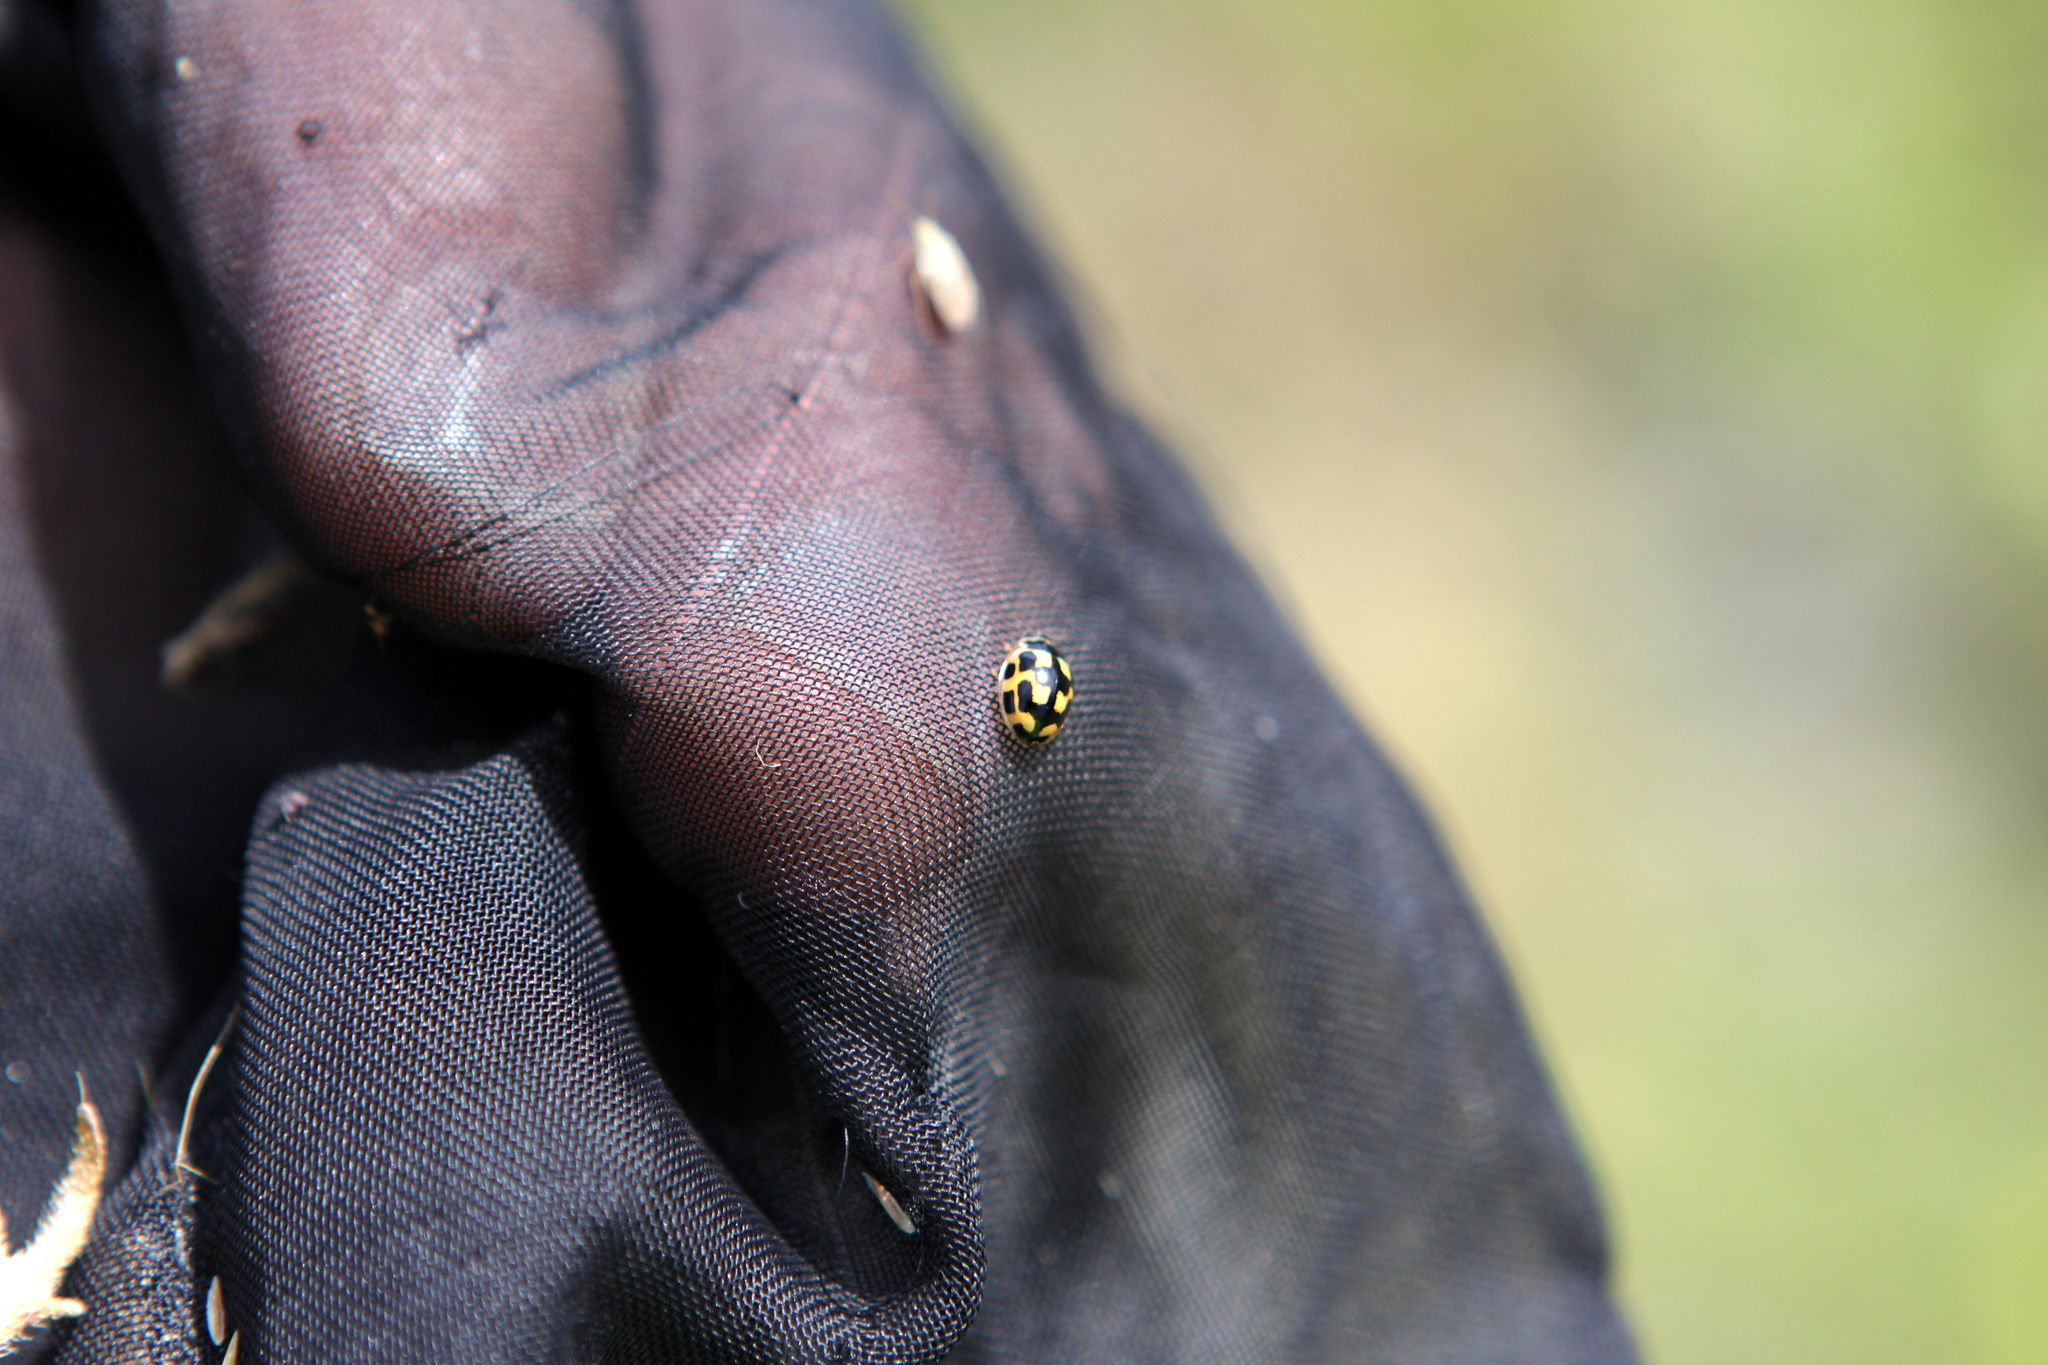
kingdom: Animalia
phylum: Arthropoda
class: Insecta
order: Coleoptera
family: Coccinellidae
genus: Propylaea
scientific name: Propylaea quatuordecimpunctata
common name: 14-spotted ladybird beetle
